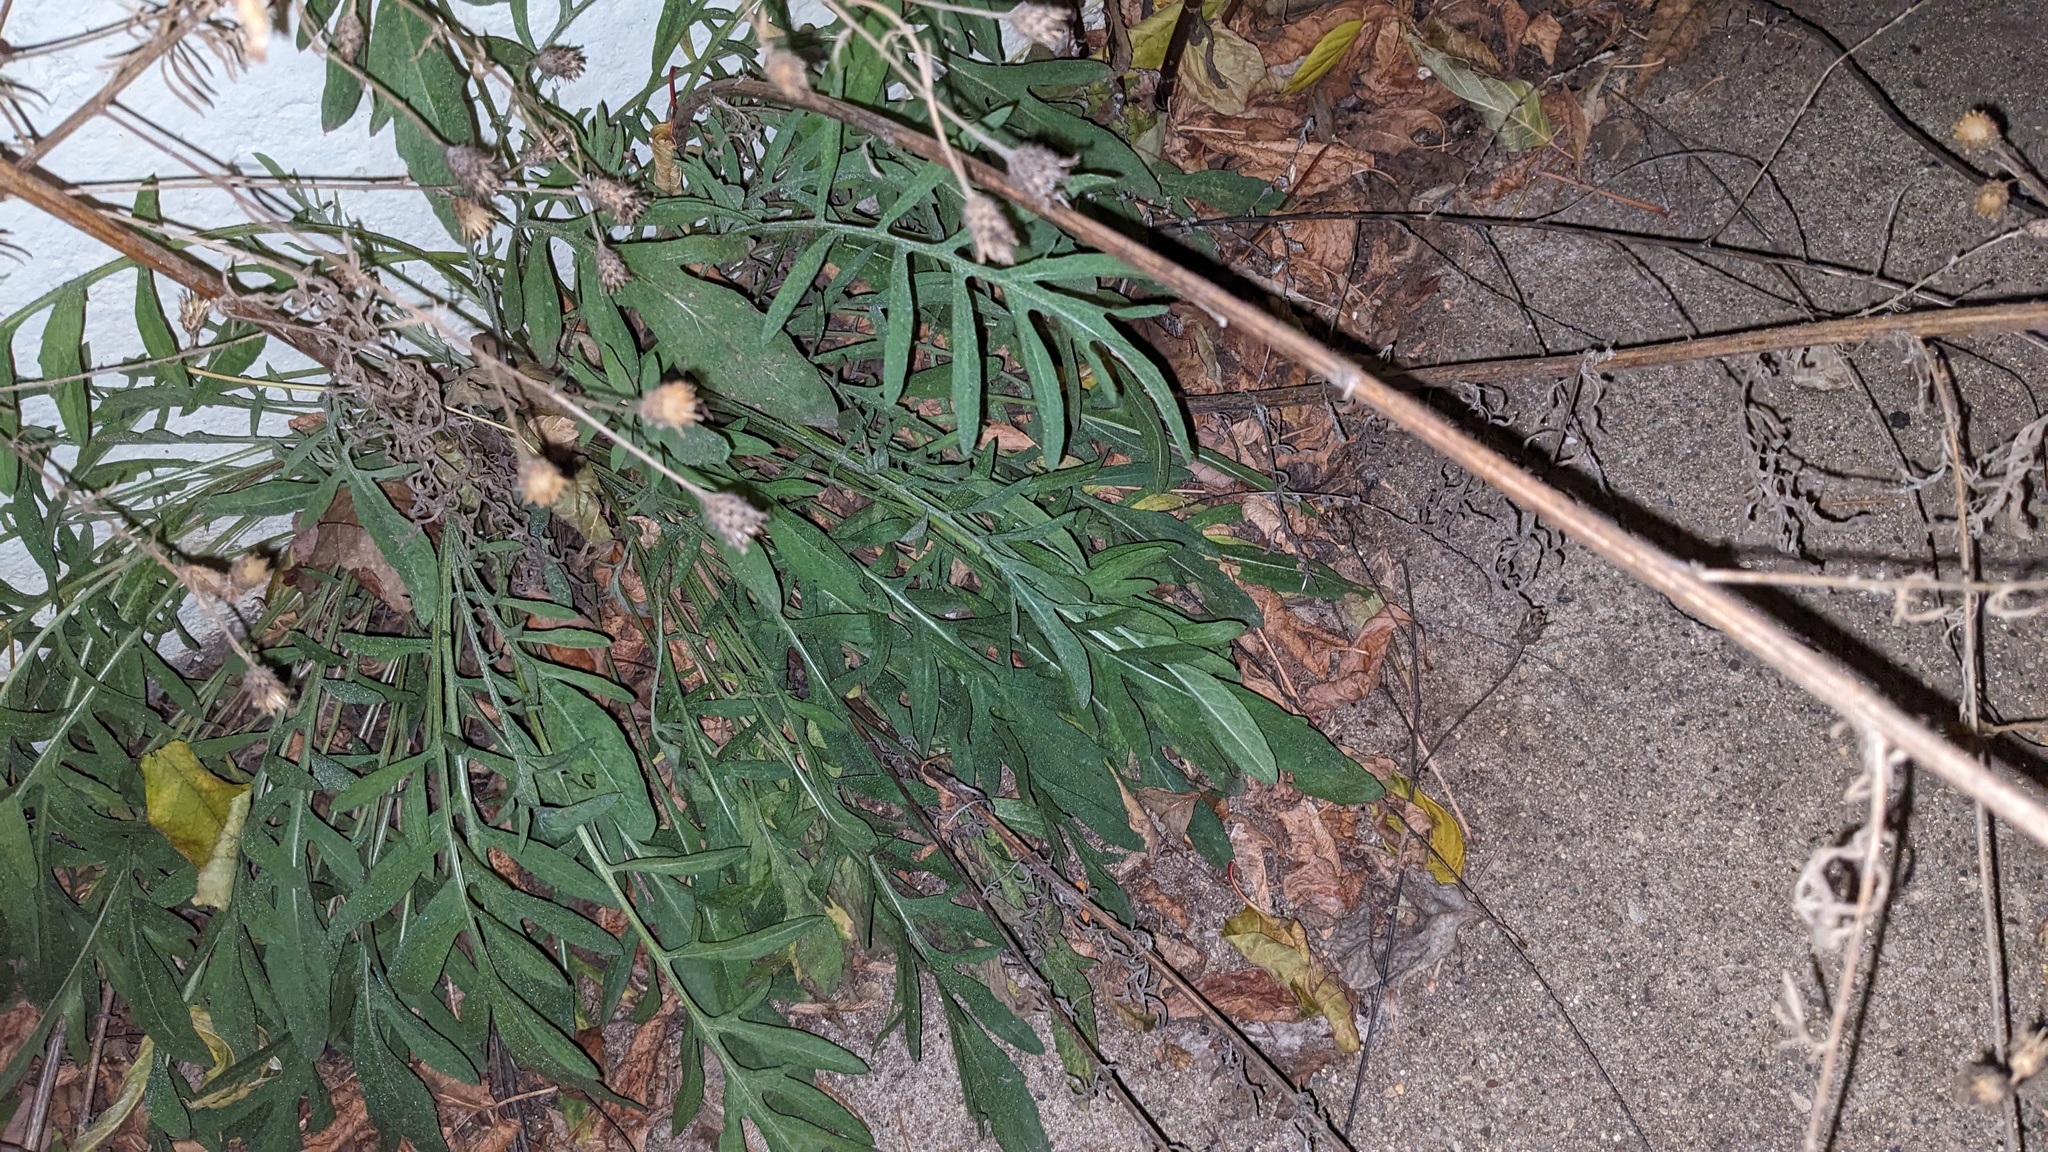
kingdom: Plantae
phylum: Tracheophyta
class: Magnoliopsida
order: Asterales
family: Asteraceae
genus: Centaurea
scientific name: Centaurea stoebe
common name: Spotted knapweed
